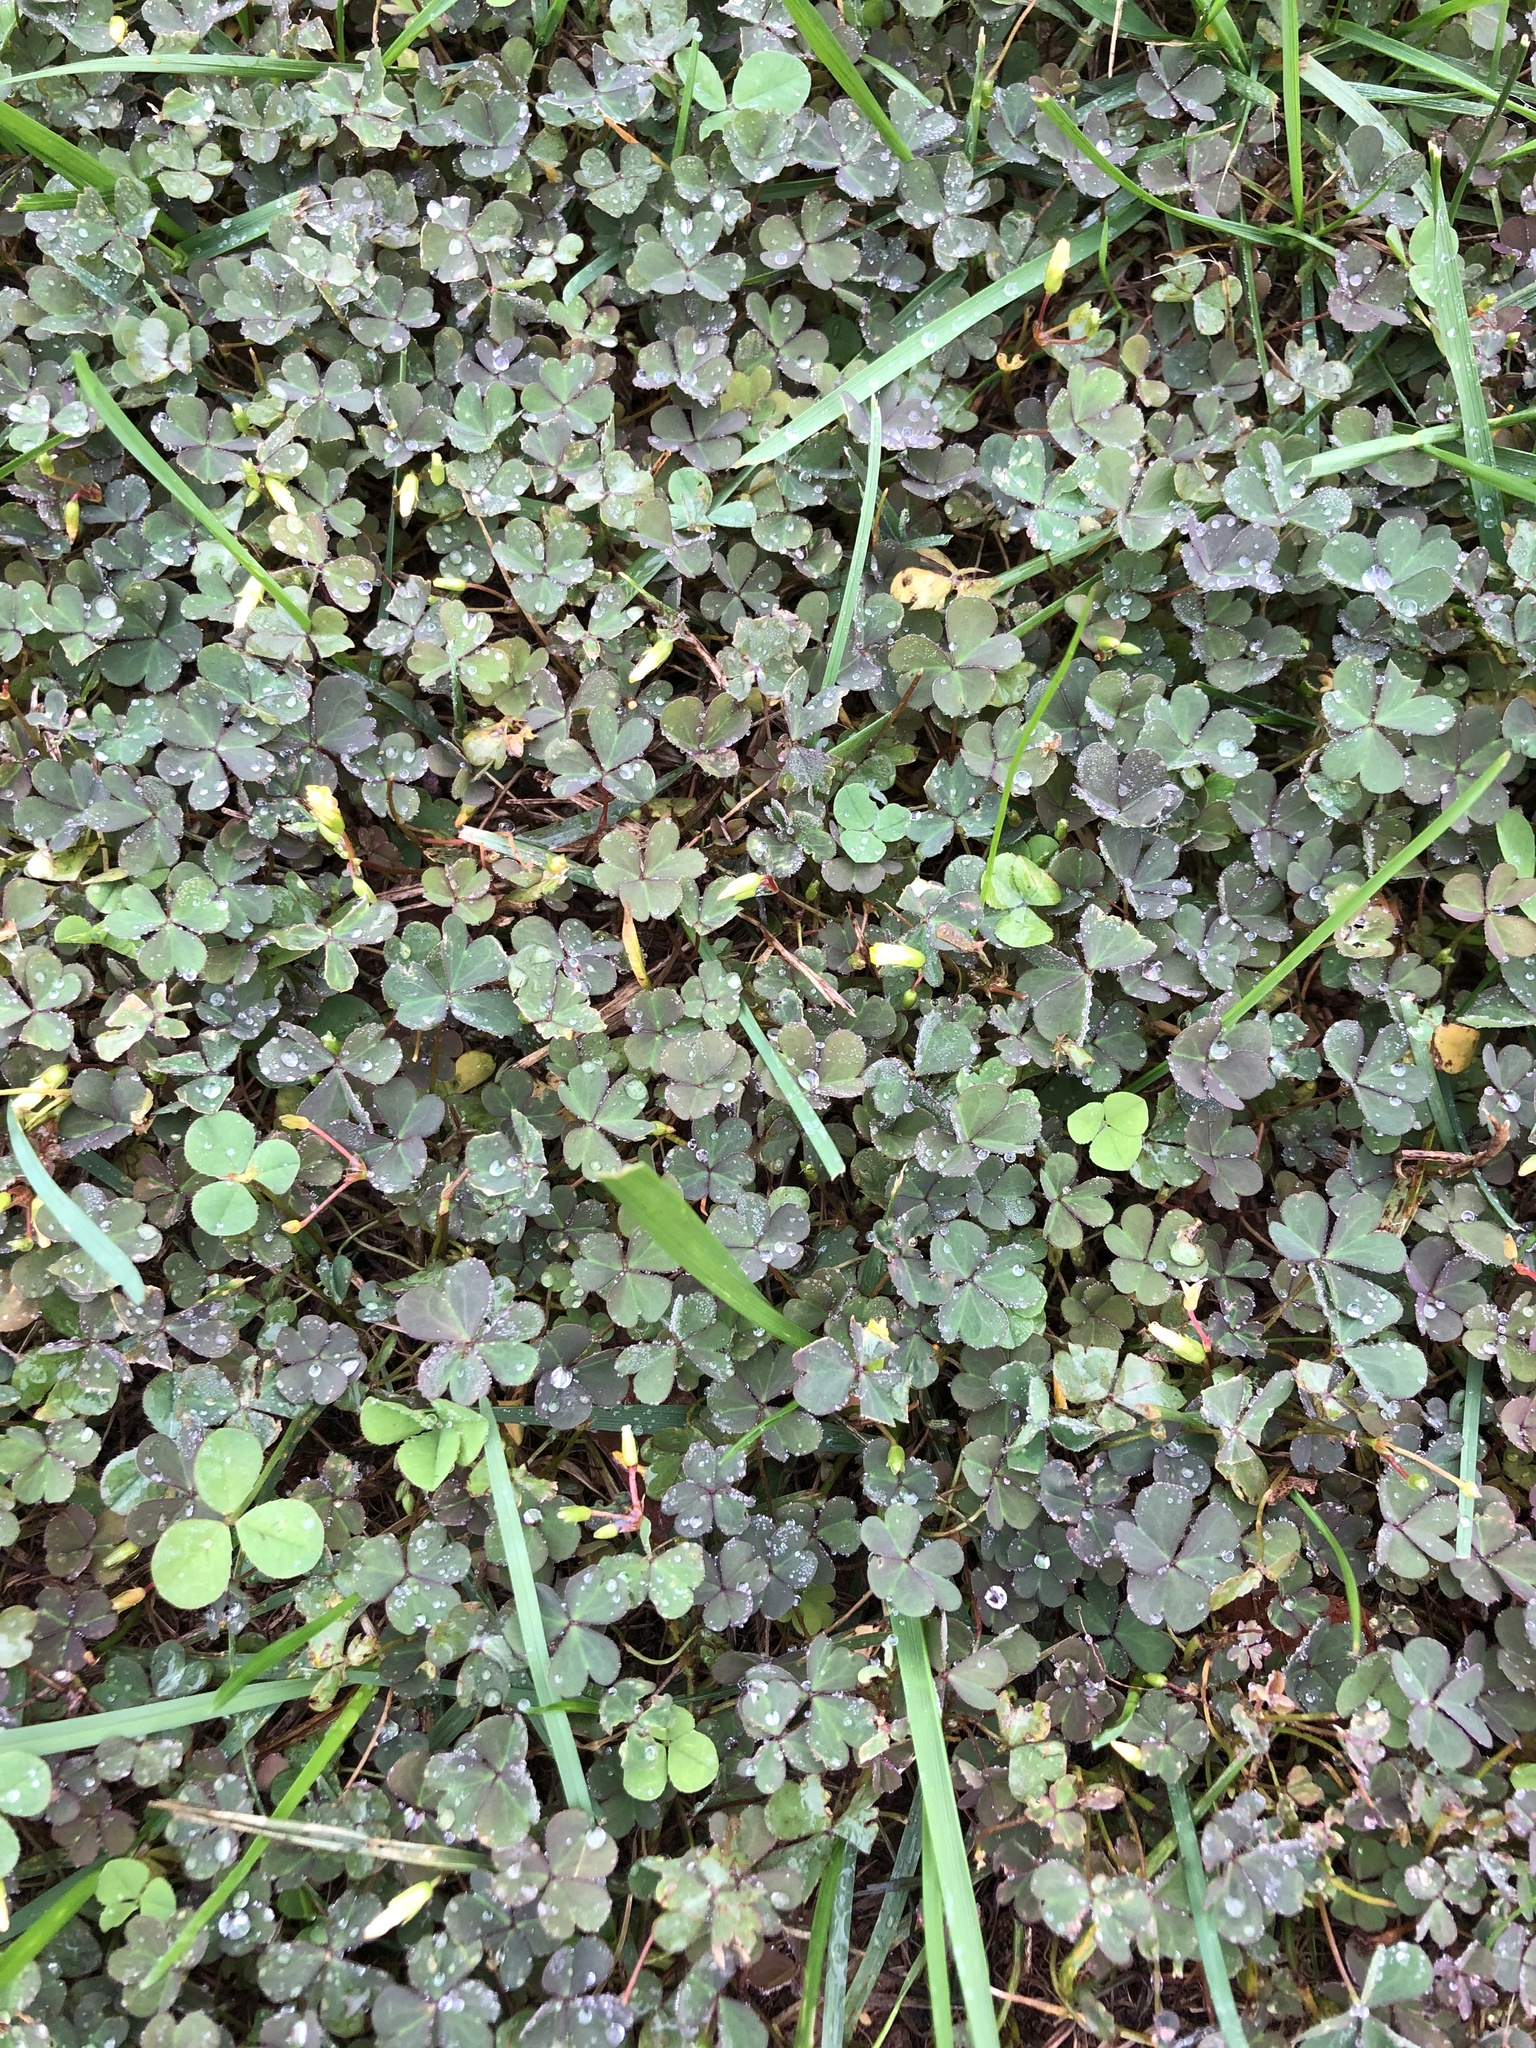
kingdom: Plantae
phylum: Tracheophyta
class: Magnoliopsida
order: Oxalidales
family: Oxalidaceae
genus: Oxalis
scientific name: Oxalis corniculata
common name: Procumbent yellow-sorrel
